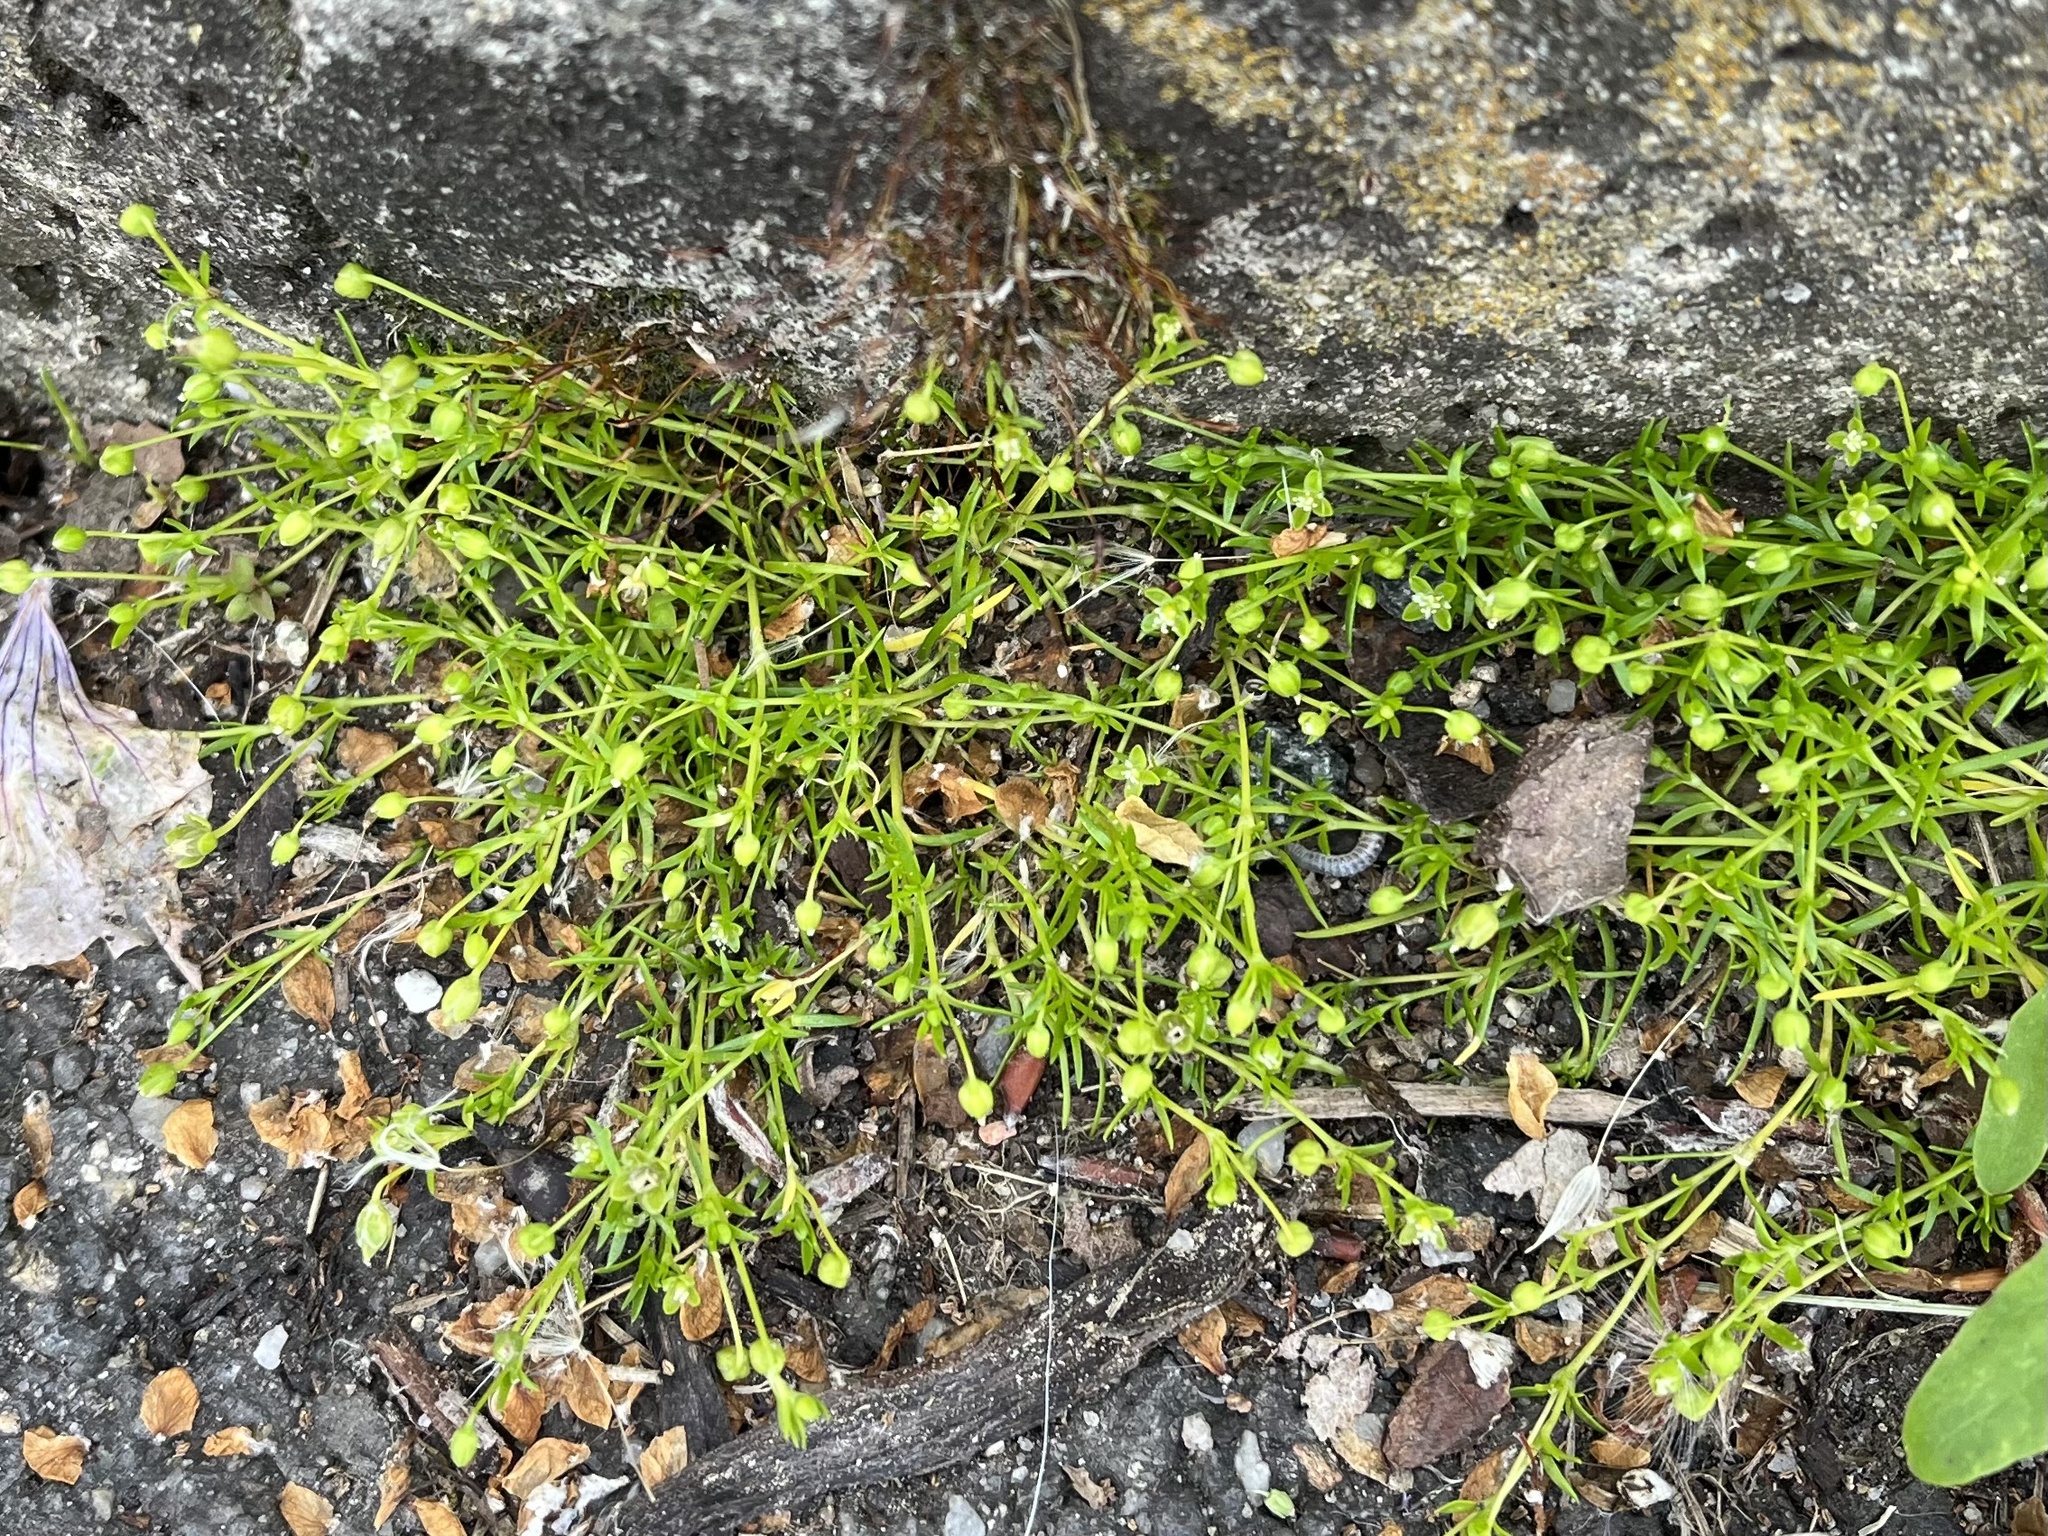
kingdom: Plantae
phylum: Tracheophyta
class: Magnoliopsida
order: Caryophyllales
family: Caryophyllaceae
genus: Sagina
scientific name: Sagina procumbens
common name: Procumbent pearlwort
